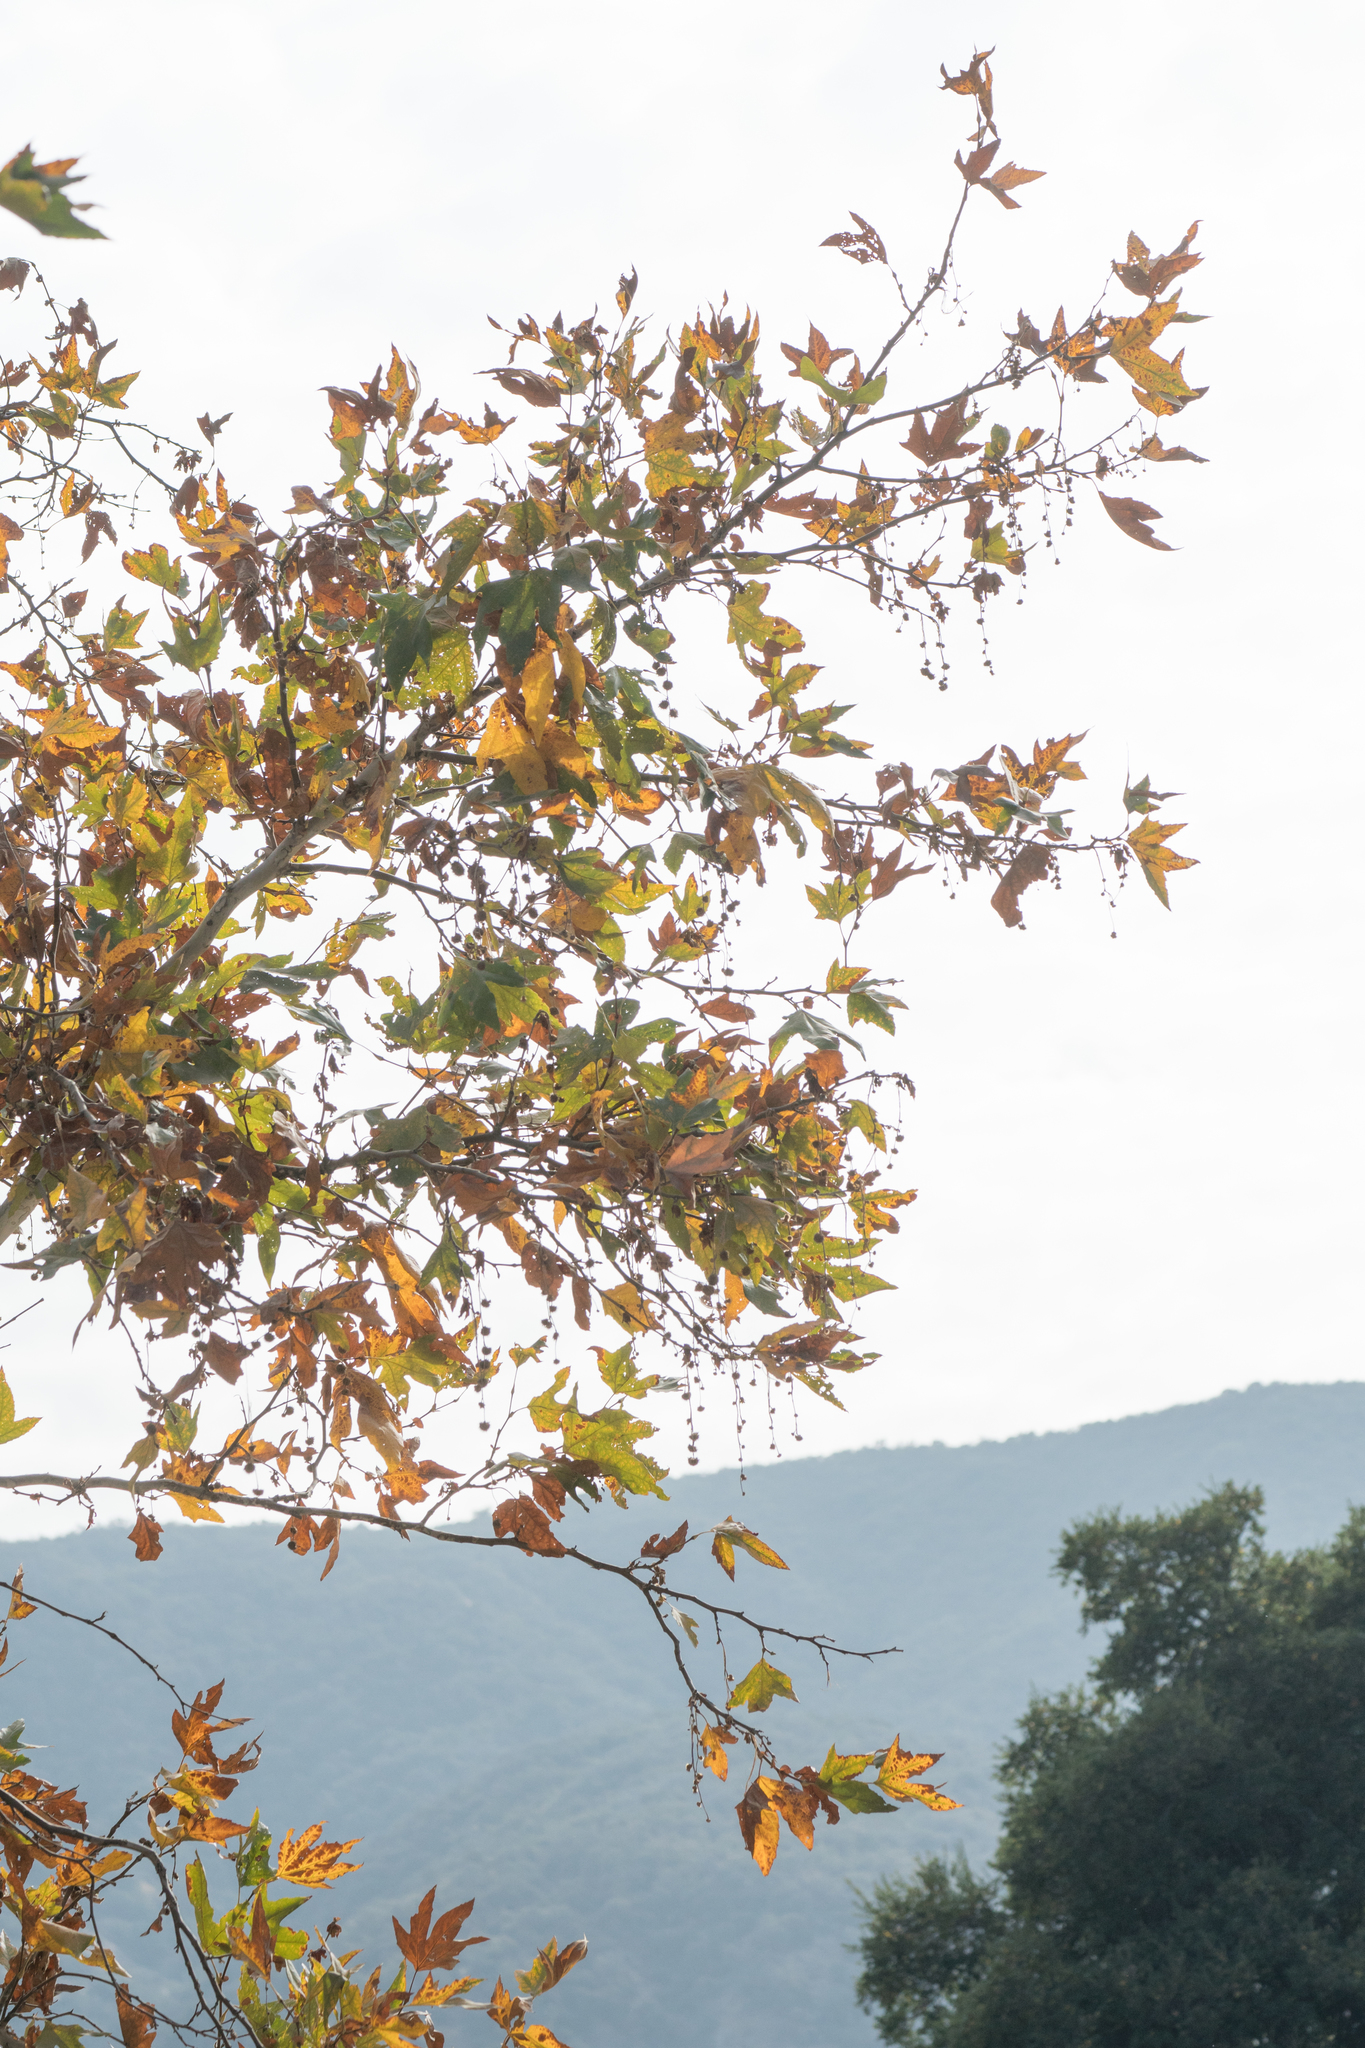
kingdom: Plantae
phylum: Tracheophyta
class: Magnoliopsida
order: Proteales
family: Platanaceae
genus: Platanus
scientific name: Platanus racemosa
